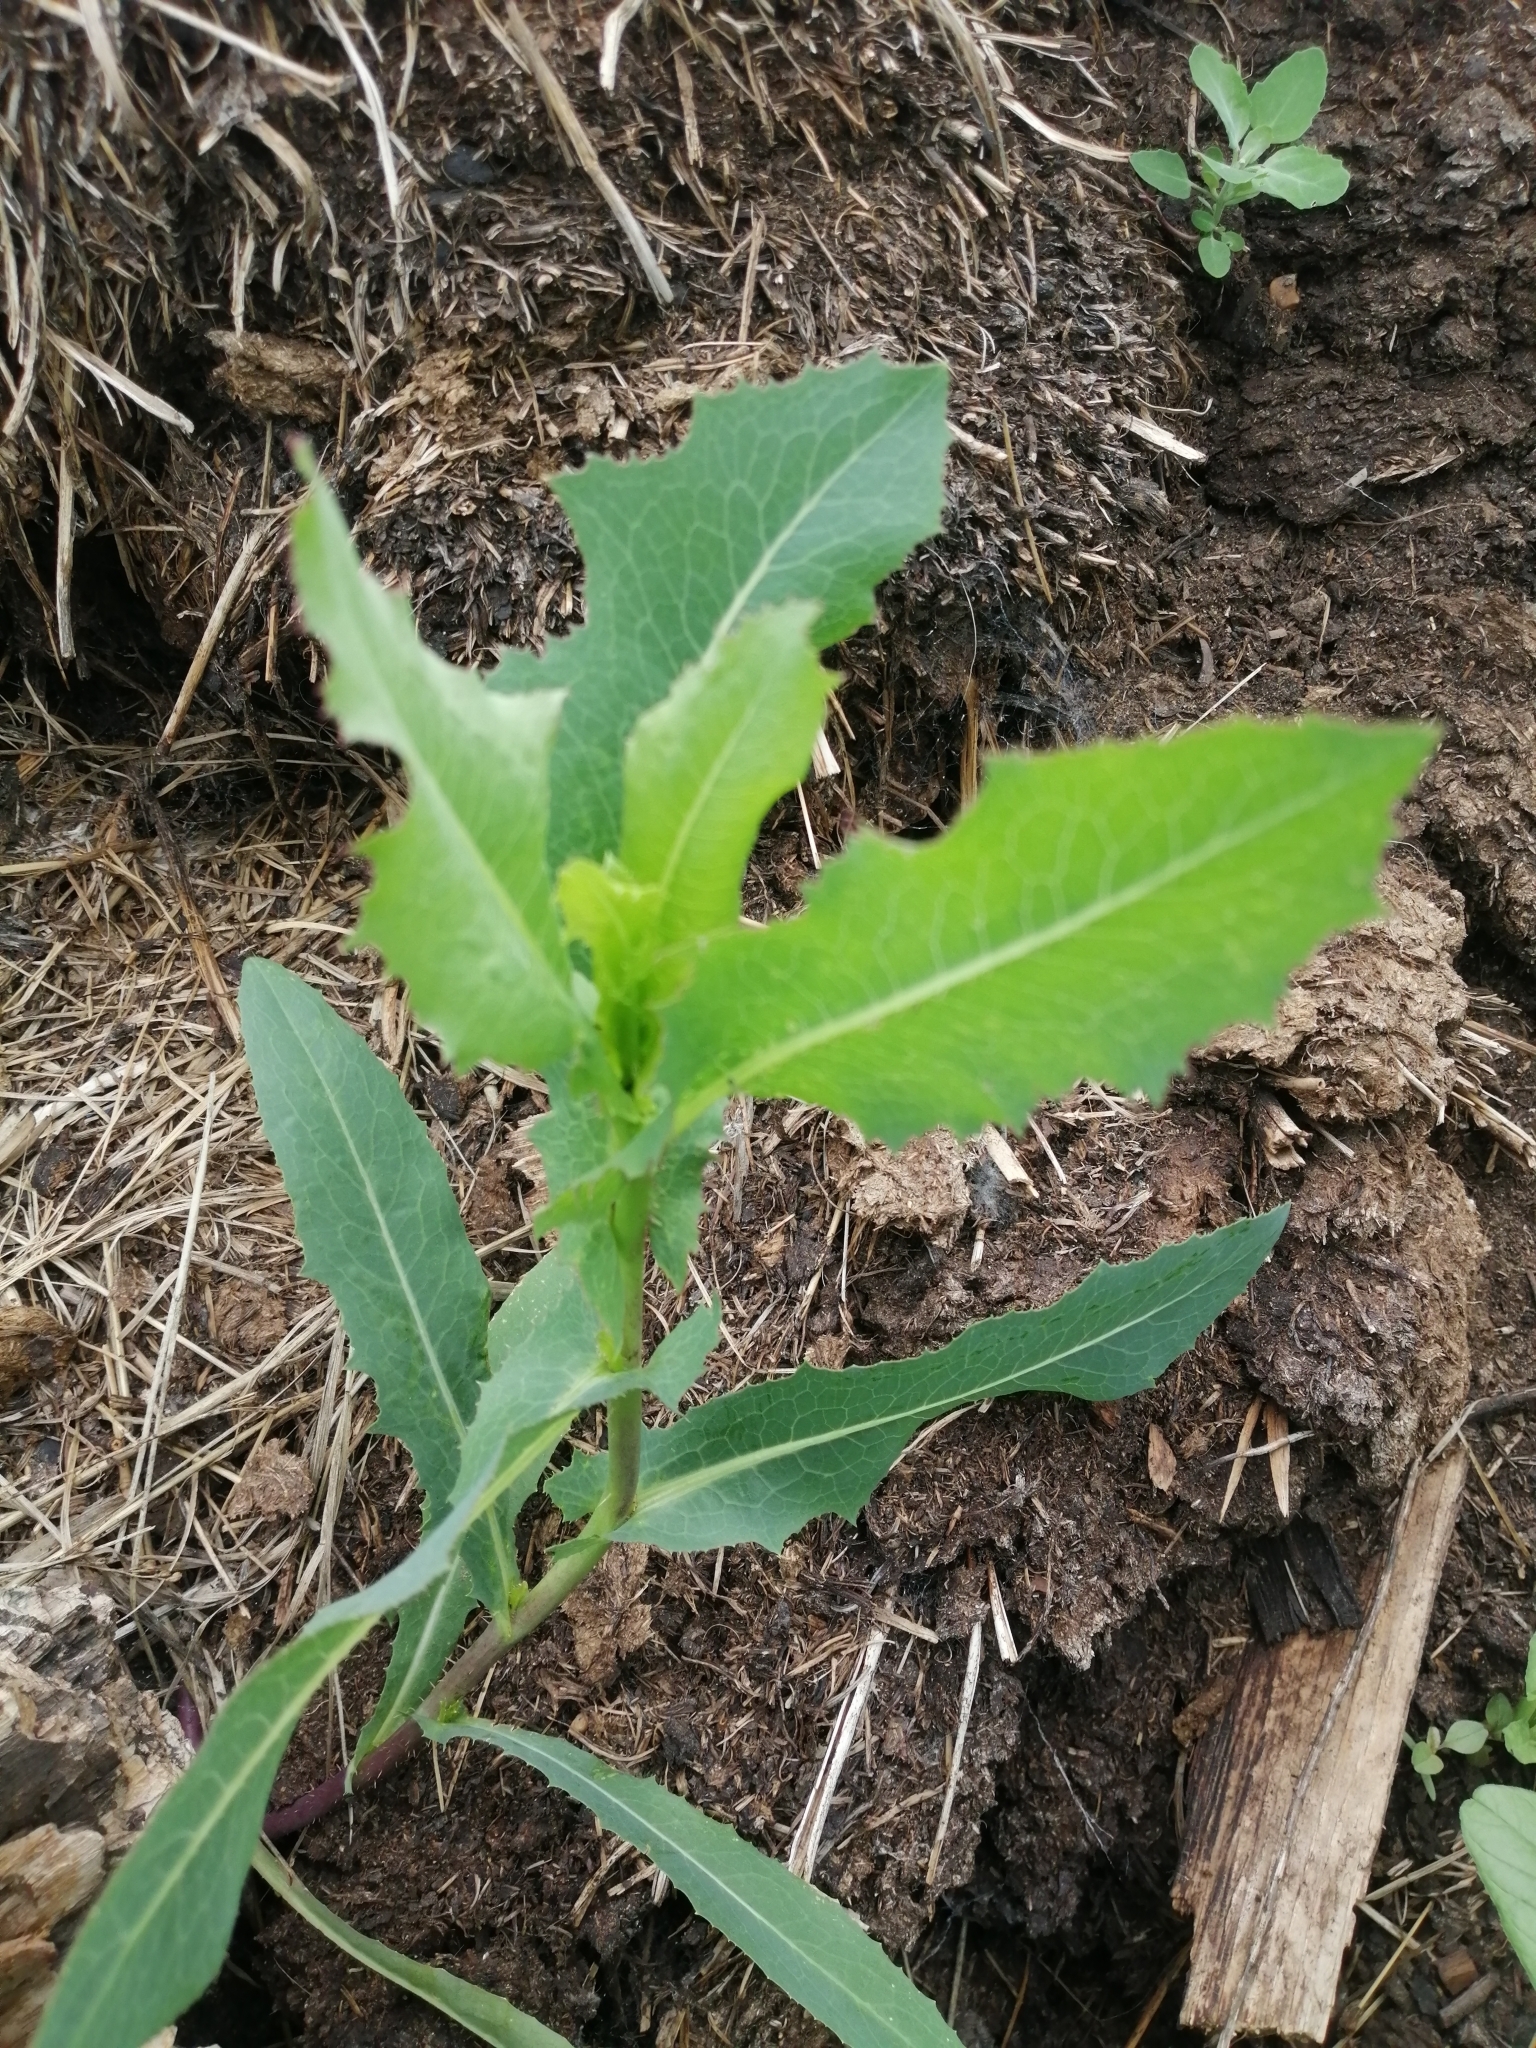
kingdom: Plantae
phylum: Tracheophyta
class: Magnoliopsida
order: Asterales
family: Asteraceae
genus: Lactuca
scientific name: Lactuca serriola
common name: Prickly lettuce
